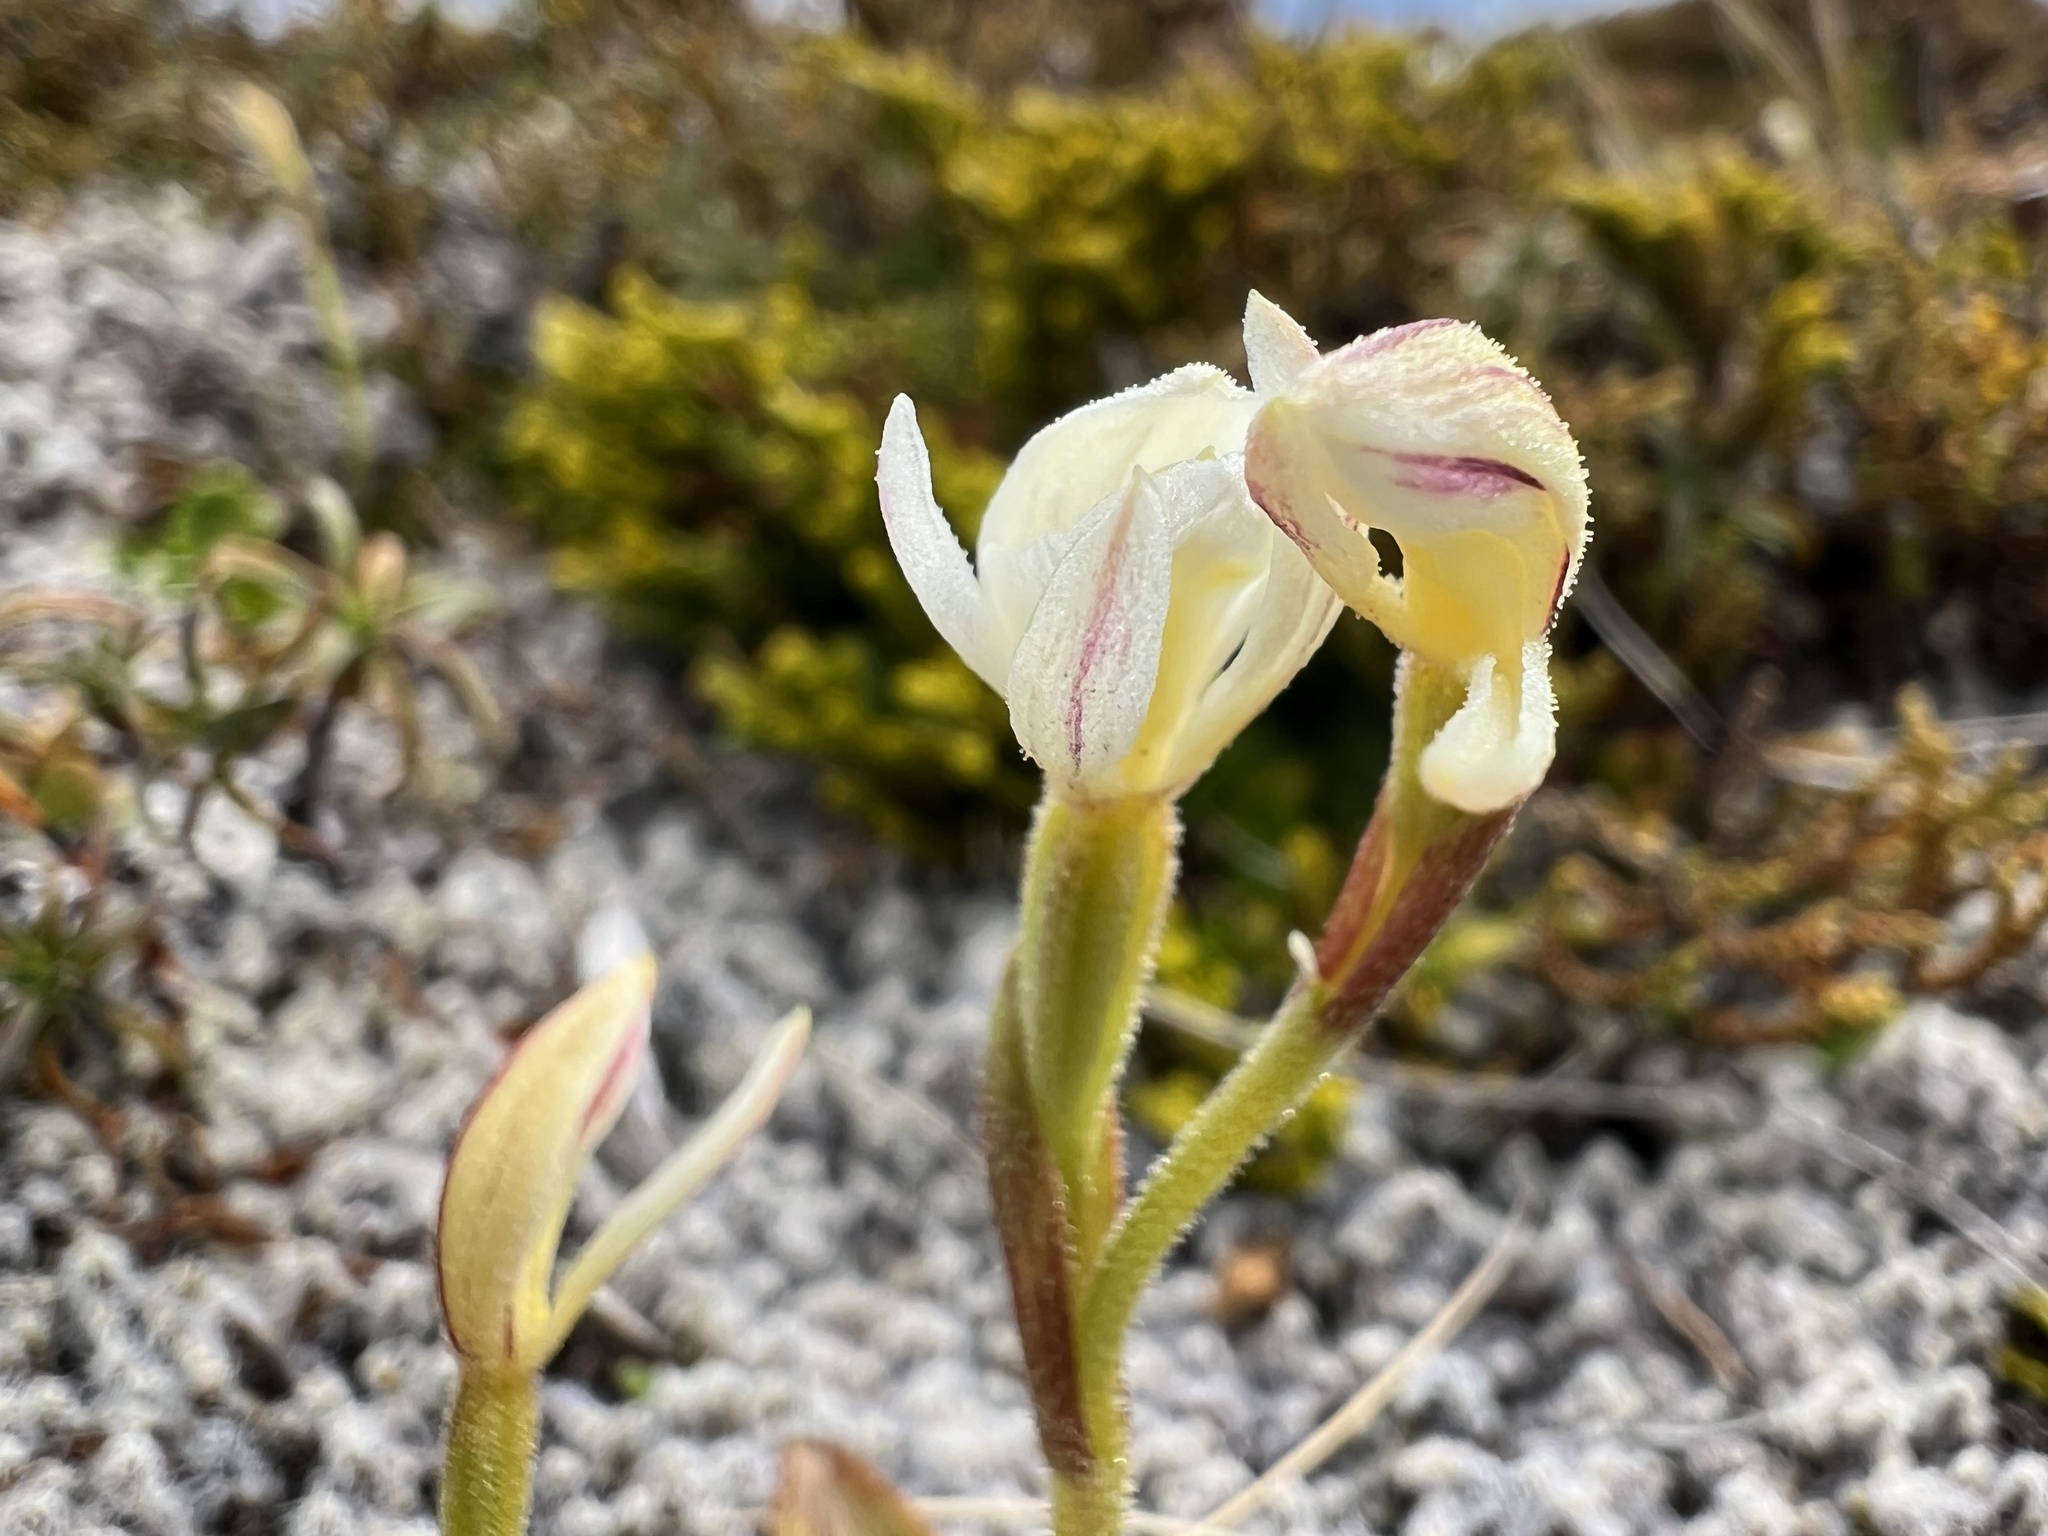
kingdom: Plantae
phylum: Tracheophyta
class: Liliopsida
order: Asparagales
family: Orchidaceae
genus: Aporostylis
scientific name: Aporostylis bifolia
